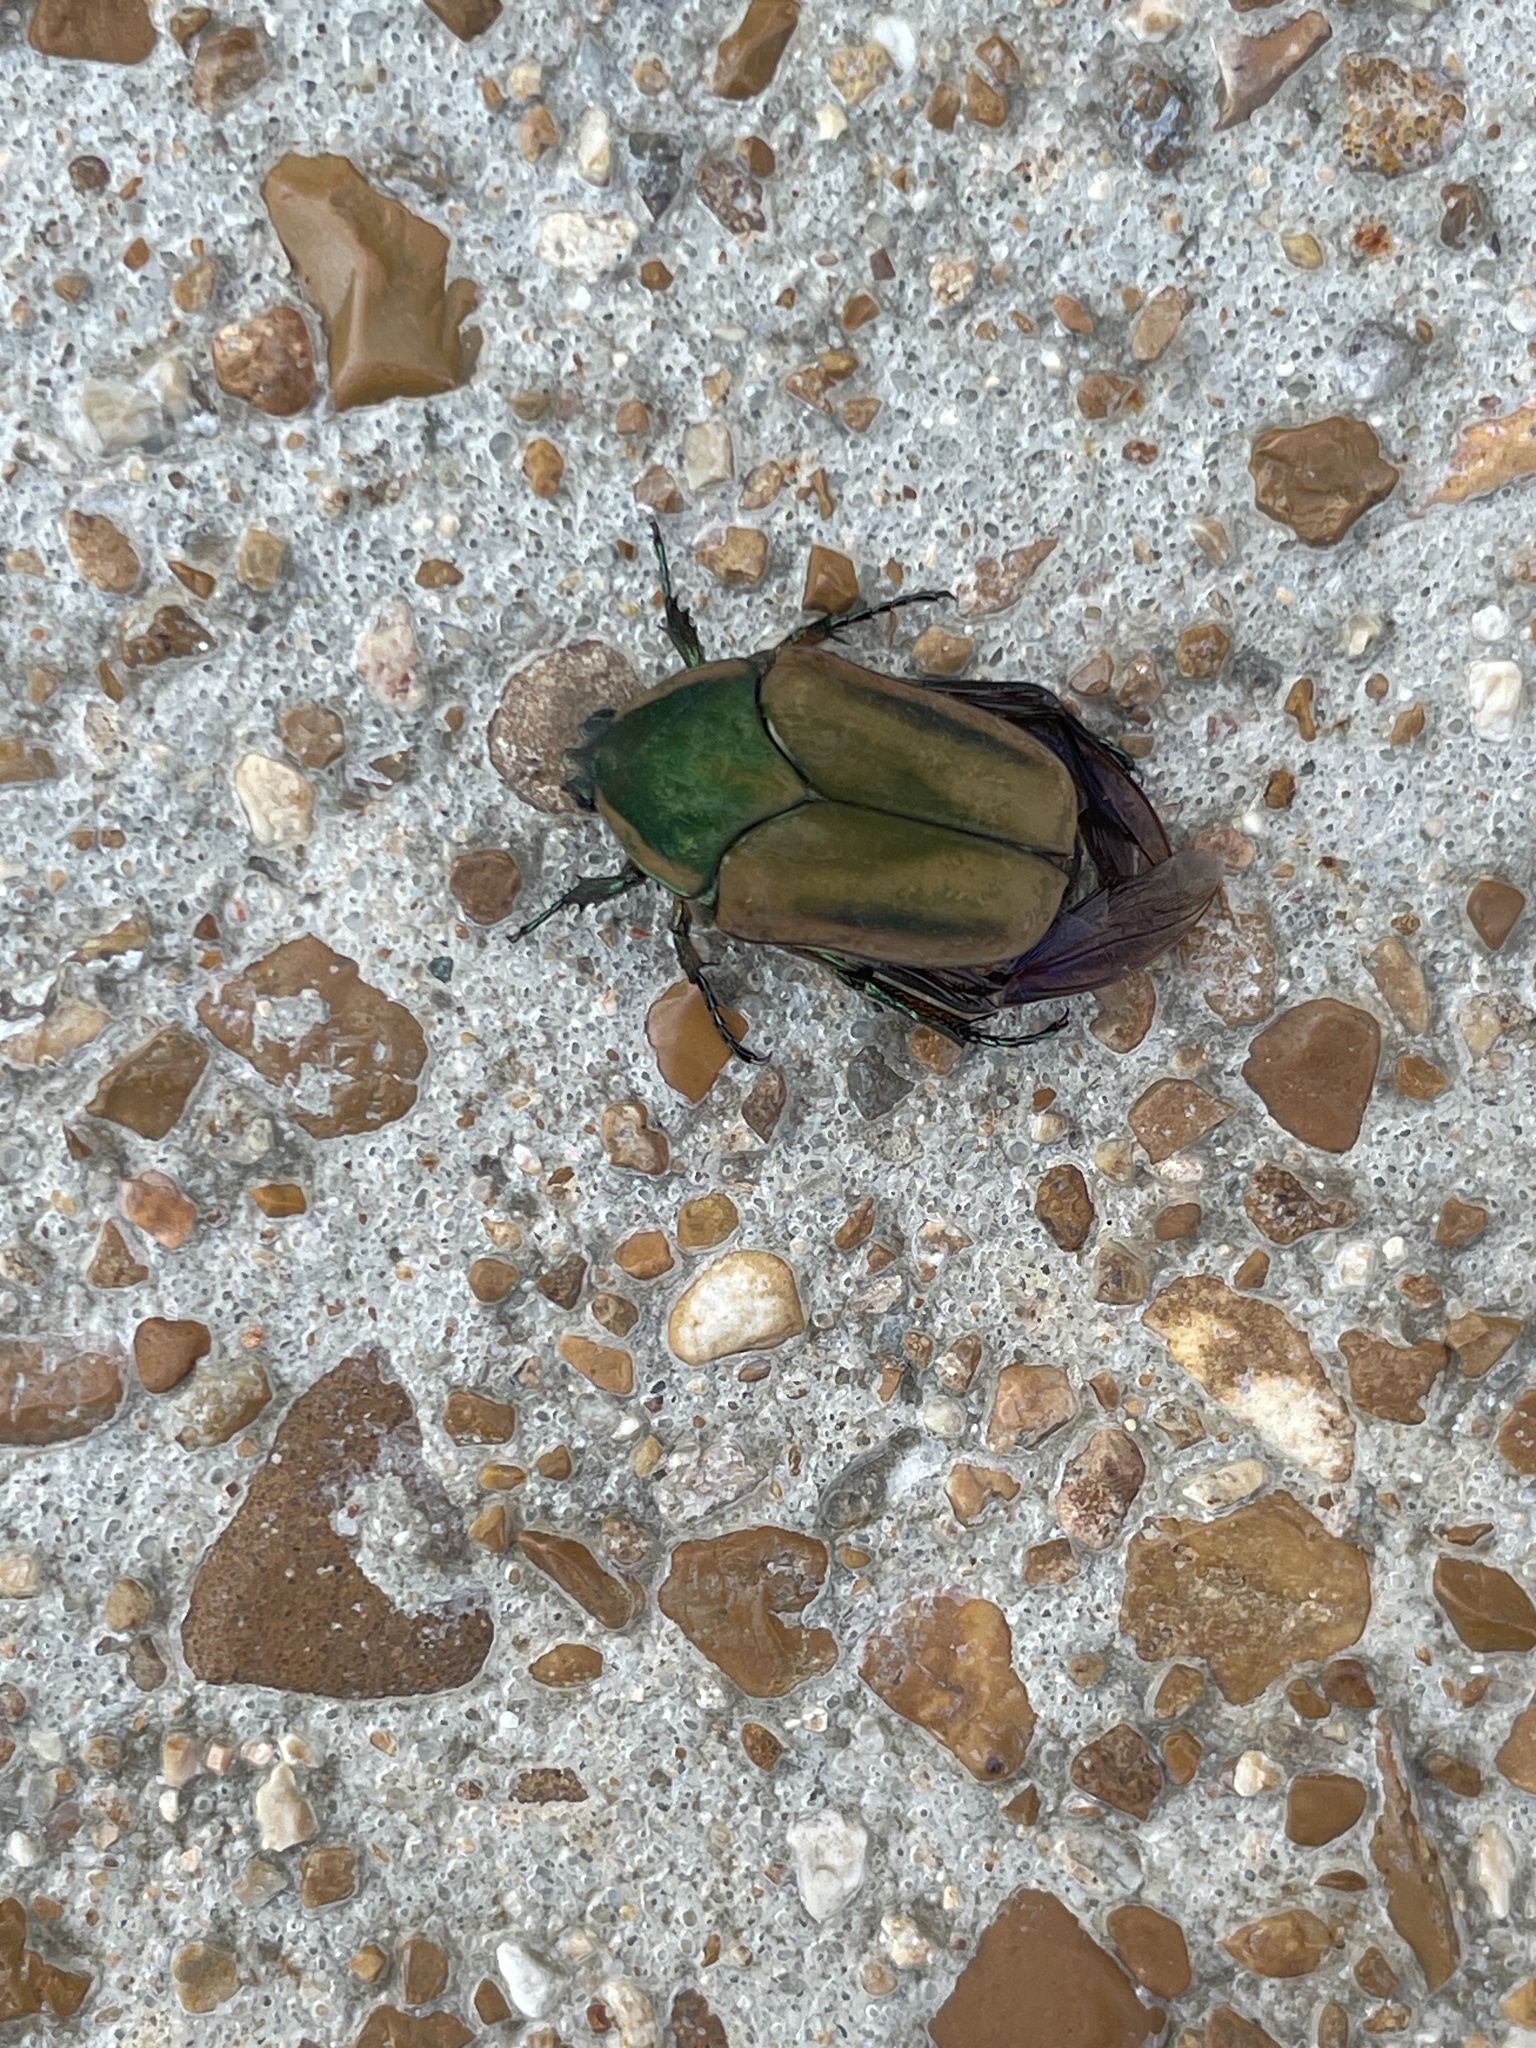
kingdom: Animalia
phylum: Arthropoda
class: Insecta
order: Coleoptera
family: Scarabaeidae
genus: Cotinis
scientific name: Cotinis nitida
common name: Common green june beetle
